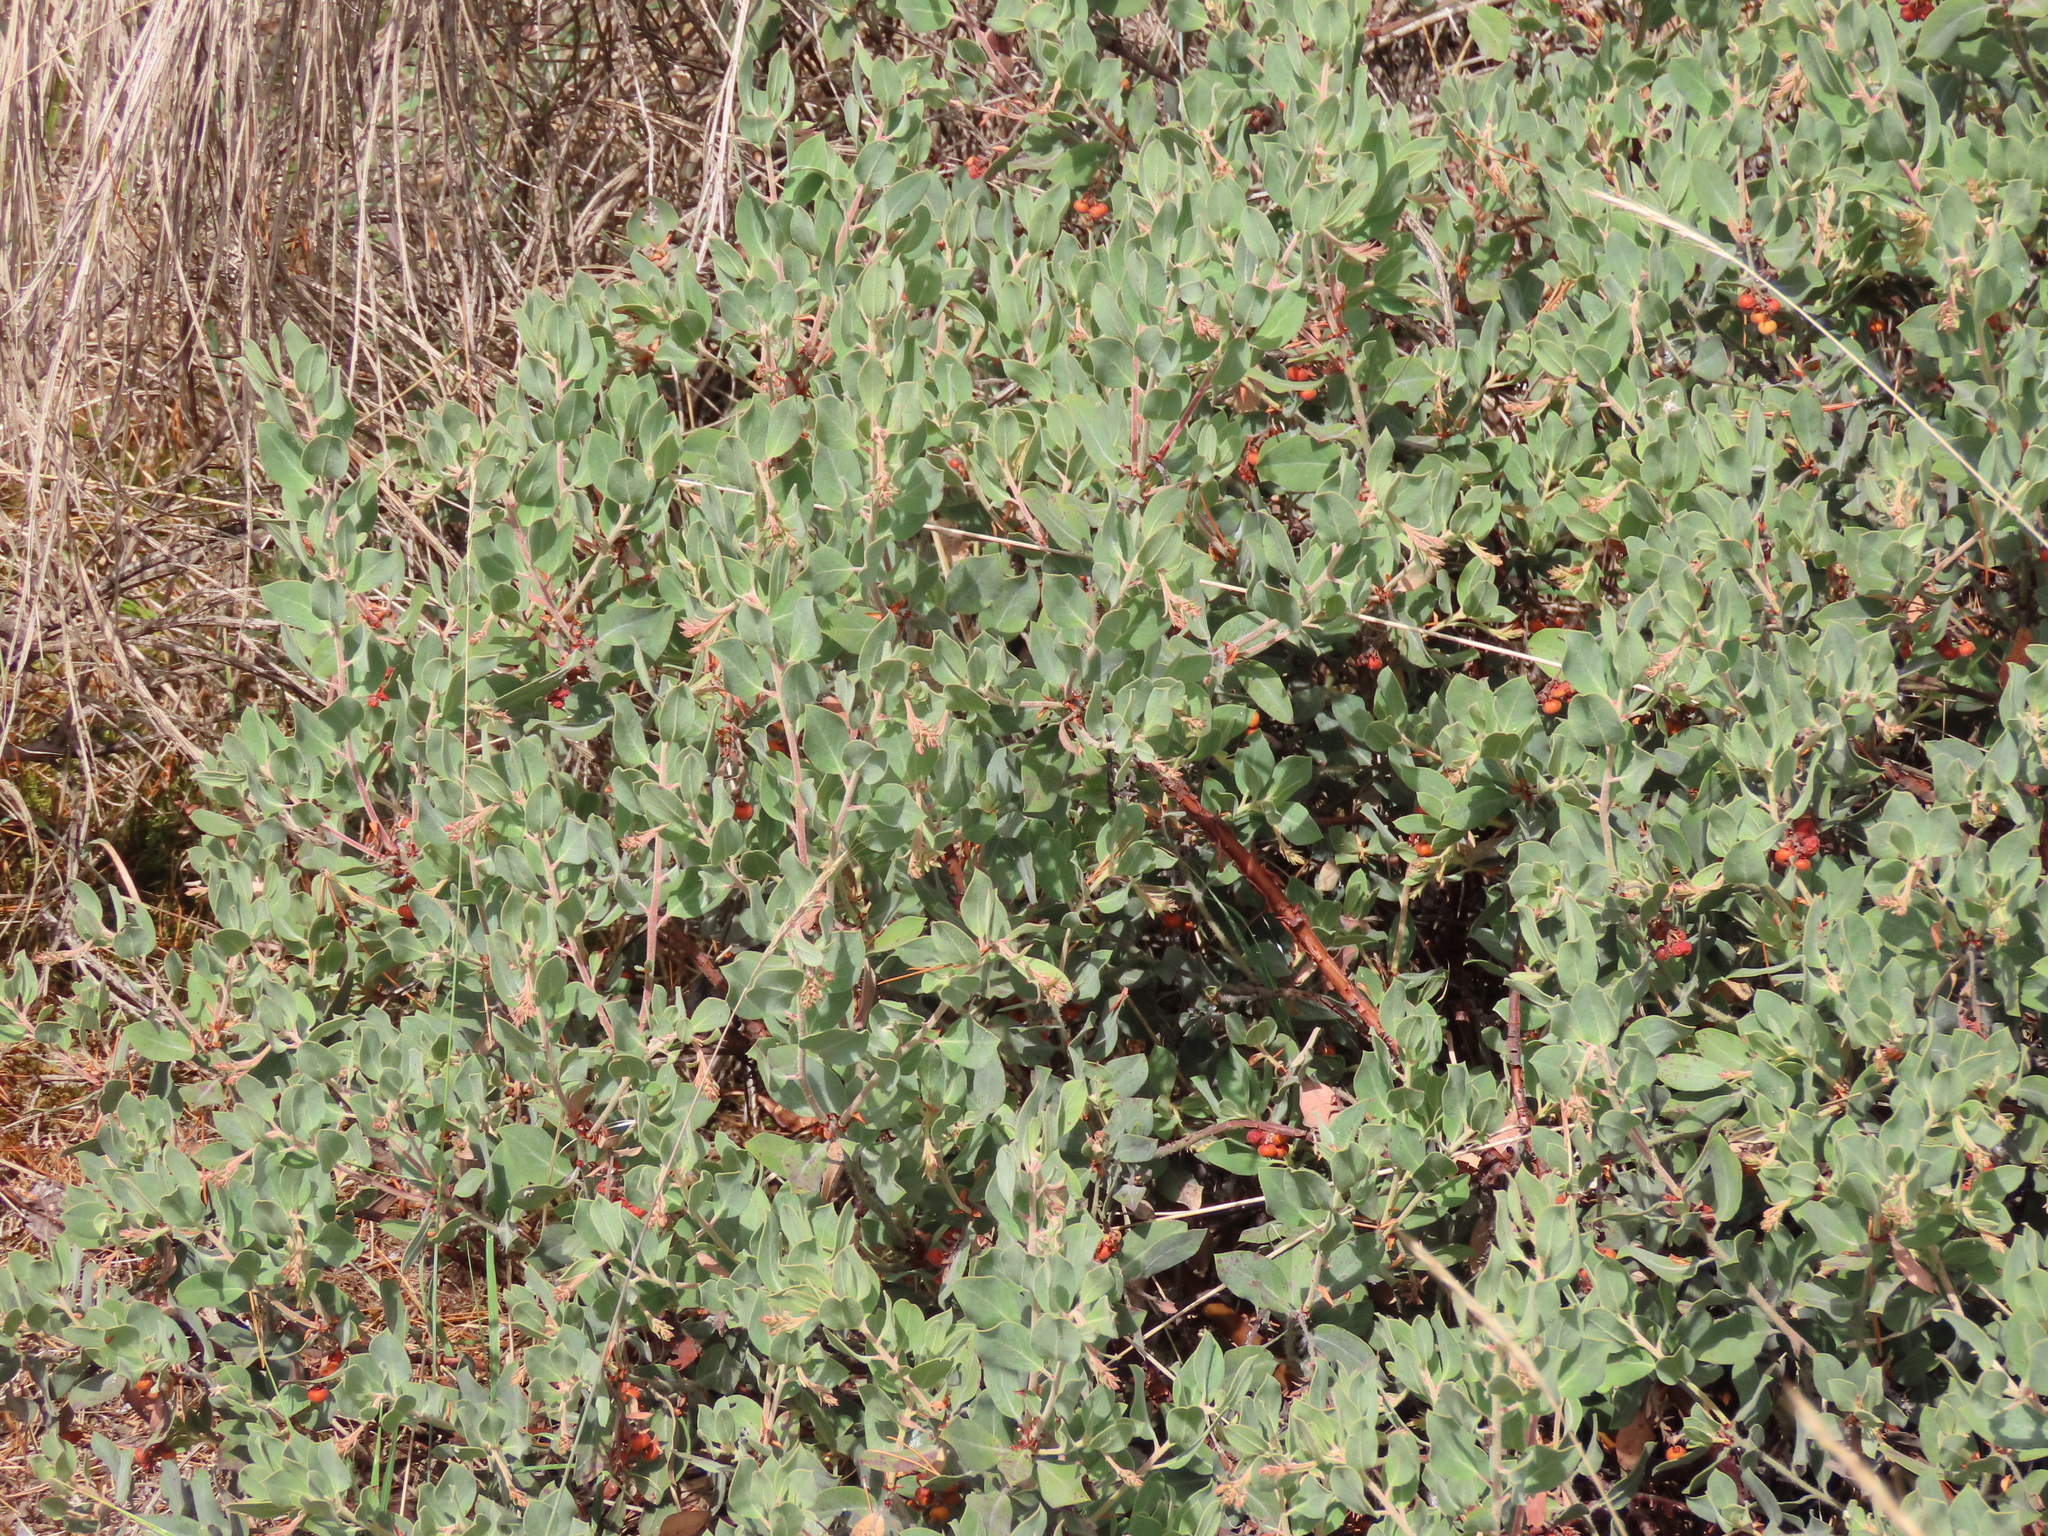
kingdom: Plantae
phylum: Tracheophyta
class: Magnoliopsida
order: Ericales
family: Ericaceae
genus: Arctostaphylos
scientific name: Arctostaphylos columbiana
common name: Bristly bearberry
